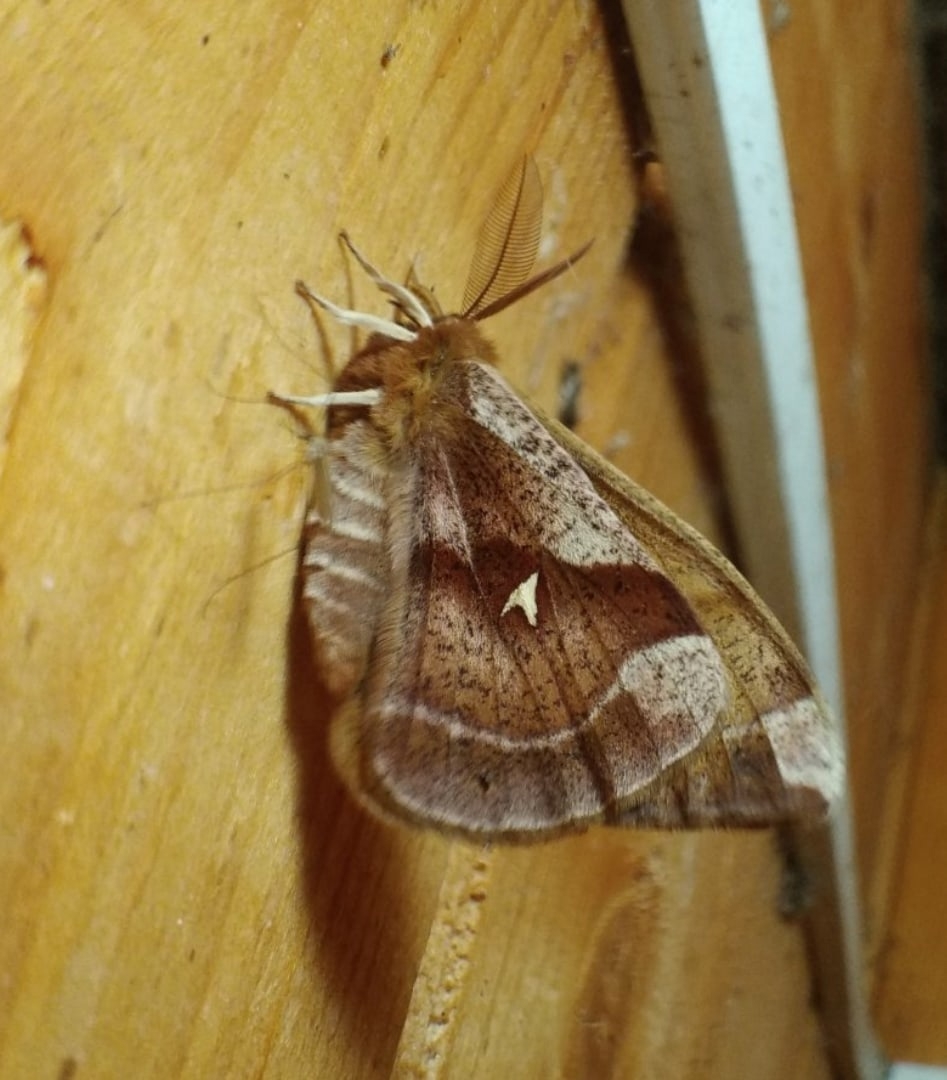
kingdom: Animalia
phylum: Arthropoda
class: Insecta
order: Lepidoptera
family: Saturniidae
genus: Aglia
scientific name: Aglia tau
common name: Tau emperor
